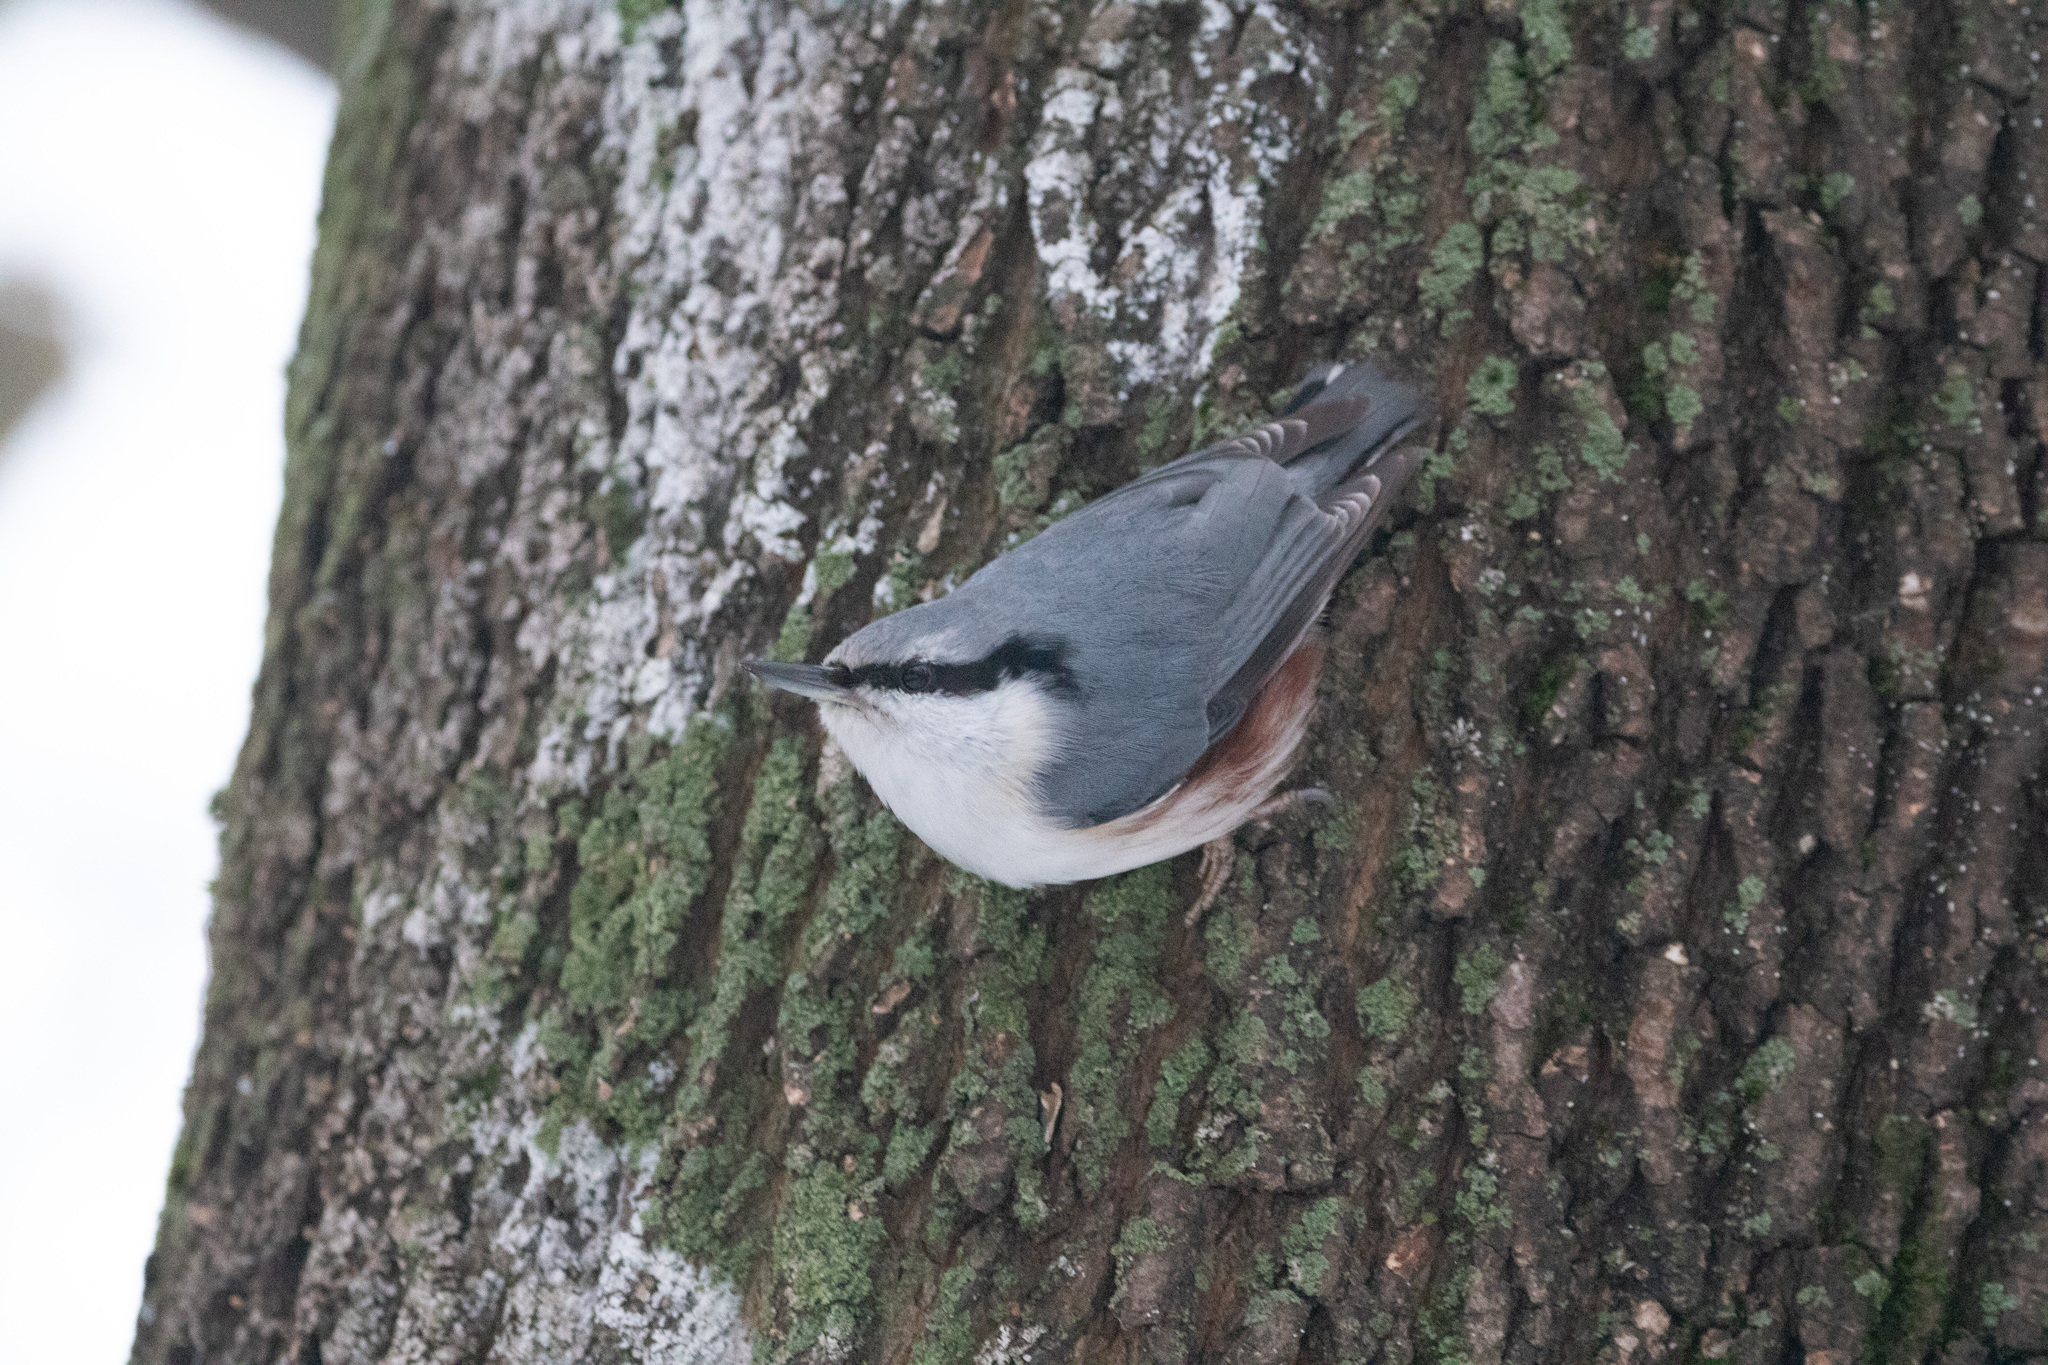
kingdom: Animalia
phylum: Chordata
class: Aves
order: Passeriformes
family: Sittidae
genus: Sitta
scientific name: Sitta europaea
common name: Eurasian nuthatch
